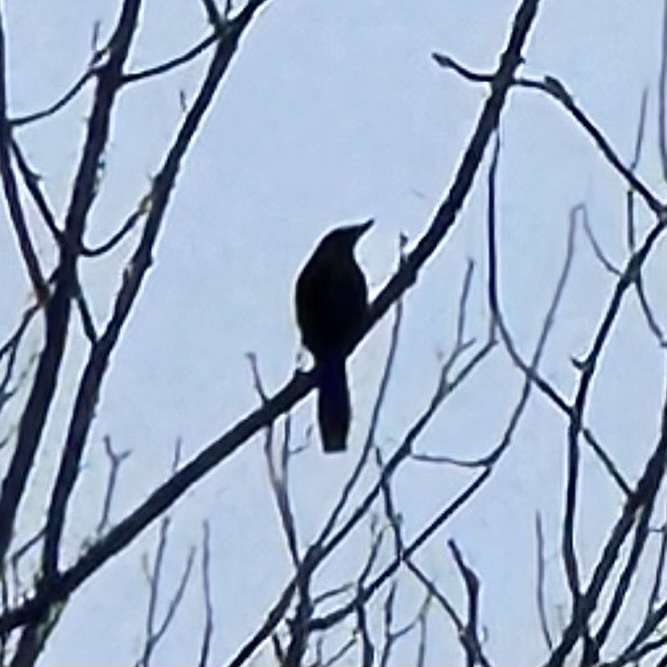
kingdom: Animalia
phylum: Chordata
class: Aves
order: Passeriformes
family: Icteridae
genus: Quiscalus
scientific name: Quiscalus quiscula
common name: Common grackle
